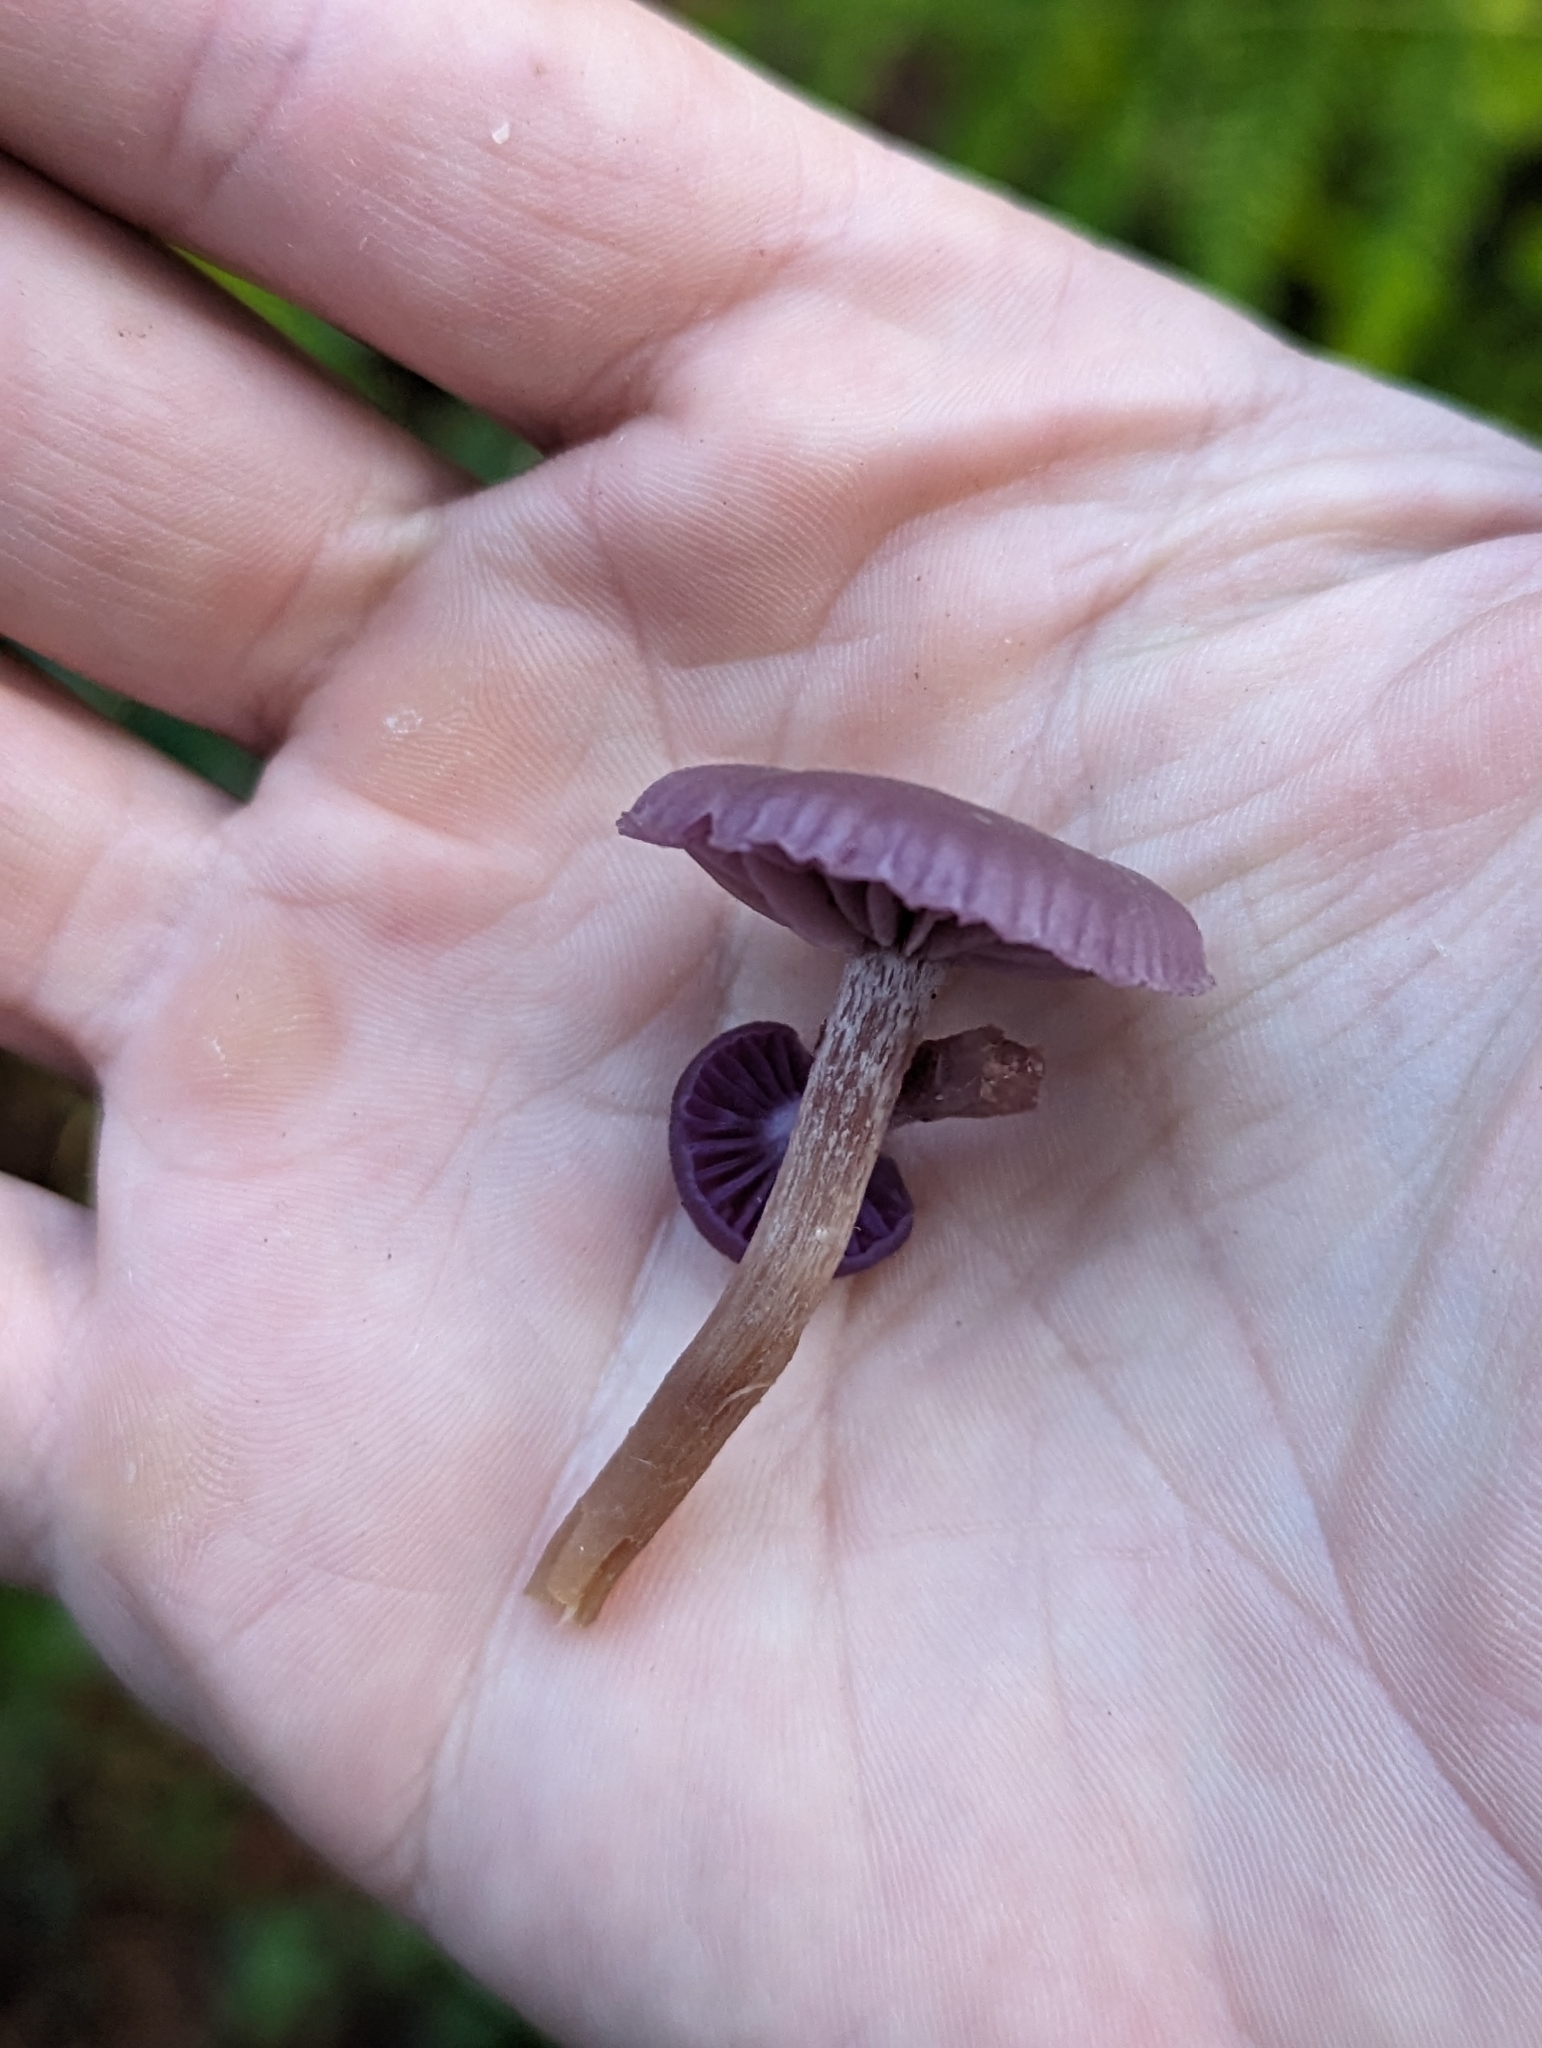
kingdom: Fungi
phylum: Basidiomycota
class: Agaricomycetes
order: Agaricales
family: Hydnangiaceae
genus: Laccaria
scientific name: Laccaria amethystina
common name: Amethyst deceiver
